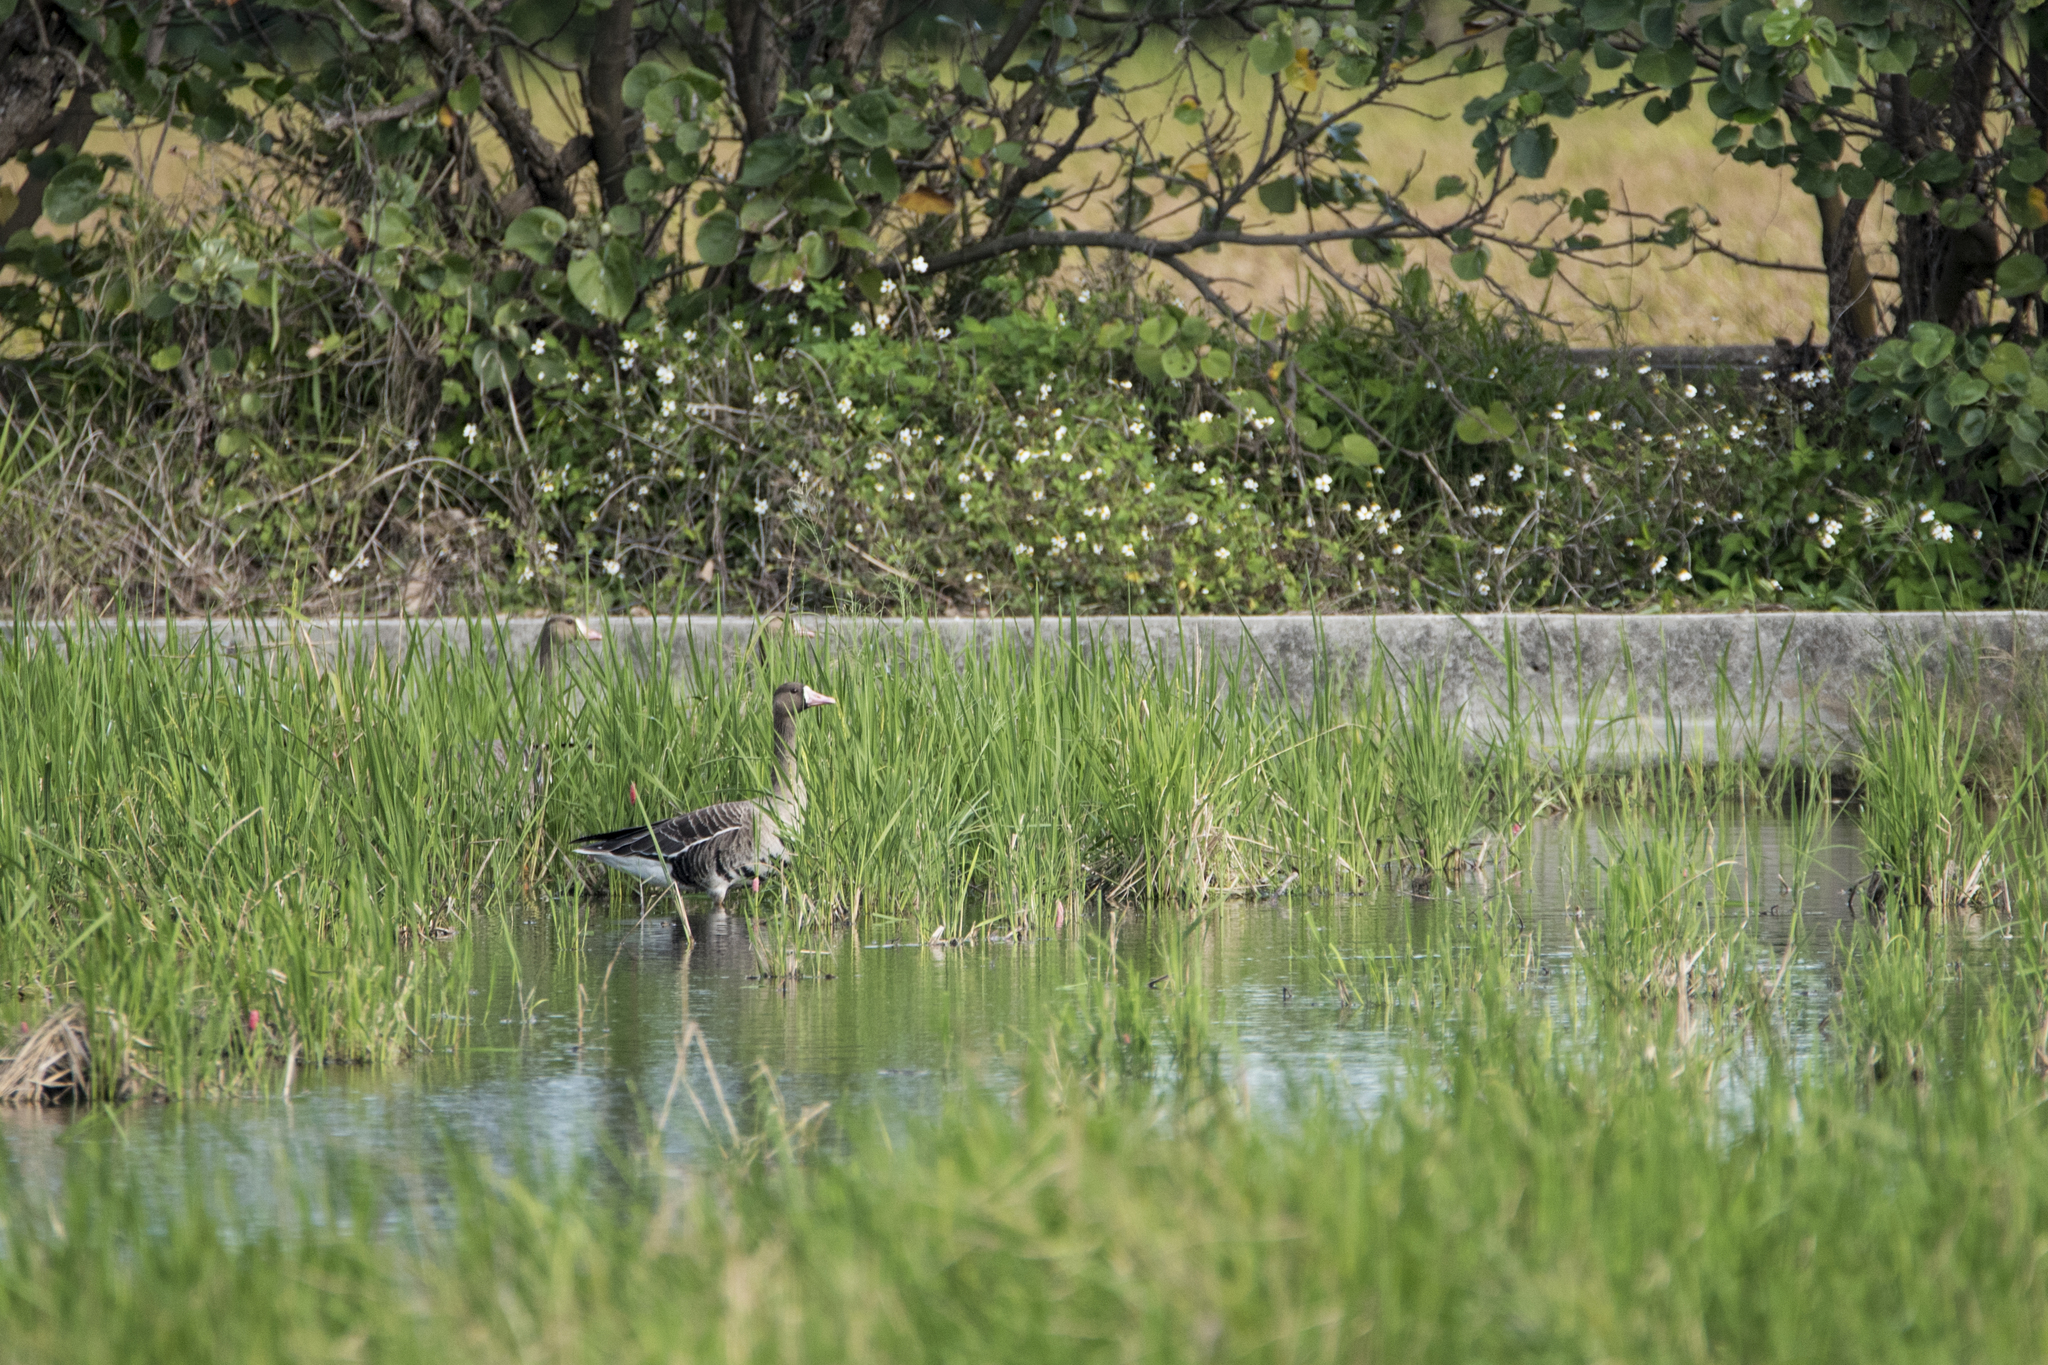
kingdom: Animalia
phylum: Chordata
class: Aves
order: Anseriformes
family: Anatidae
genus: Anser
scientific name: Anser albifrons
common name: Greater white-fronted goose
